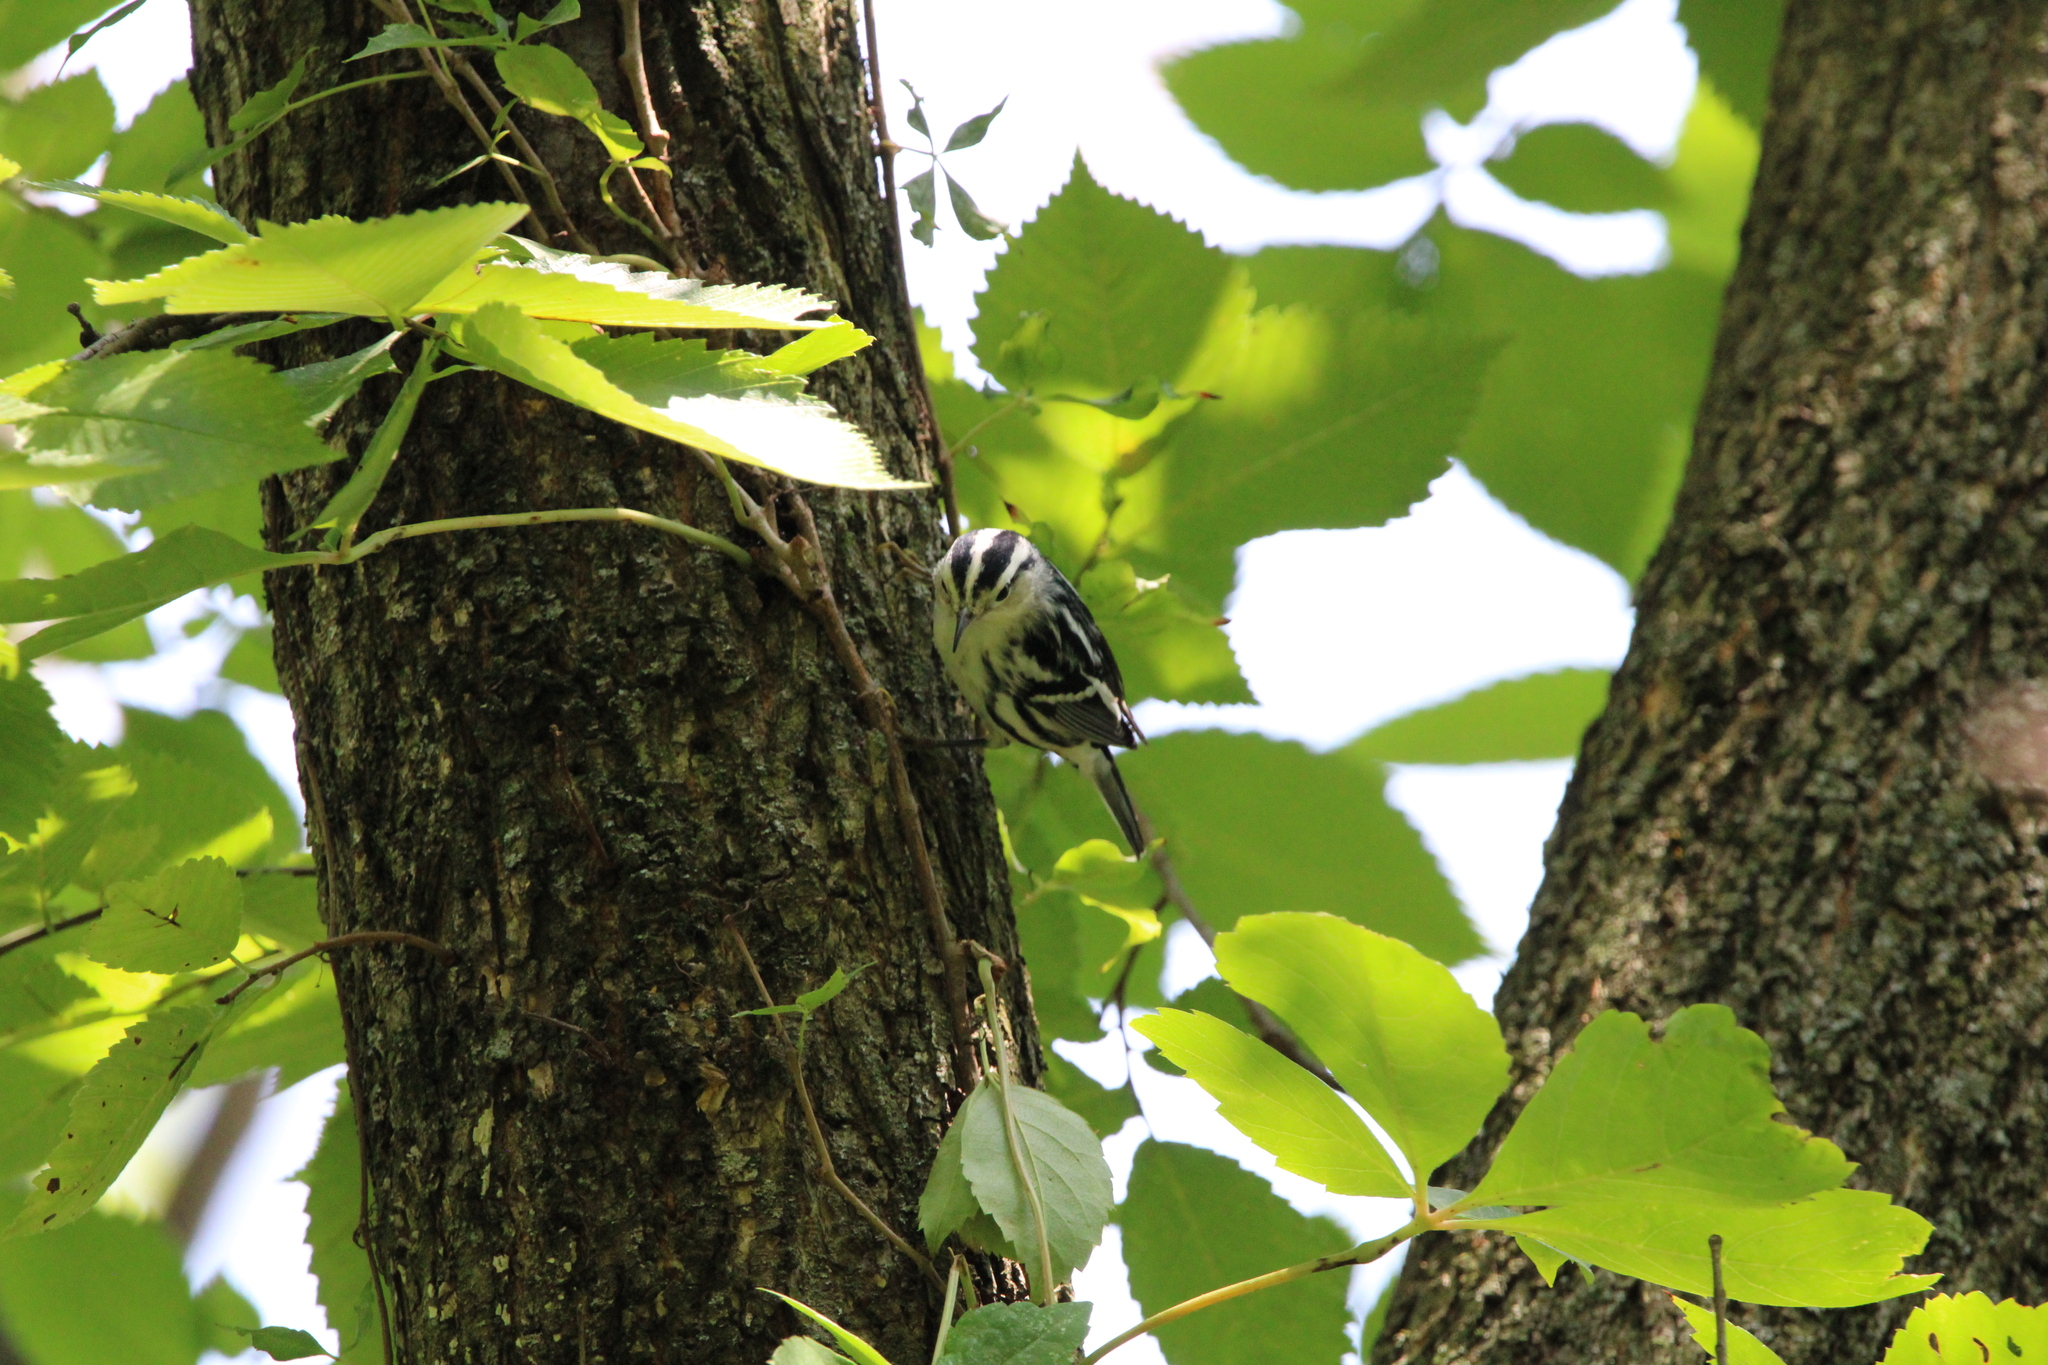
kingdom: Animalia
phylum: Chordata
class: Aves
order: Passeriformes
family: Parulidae
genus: Mniotilta
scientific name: Mniotilta varia
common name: Black-and-white warbler
